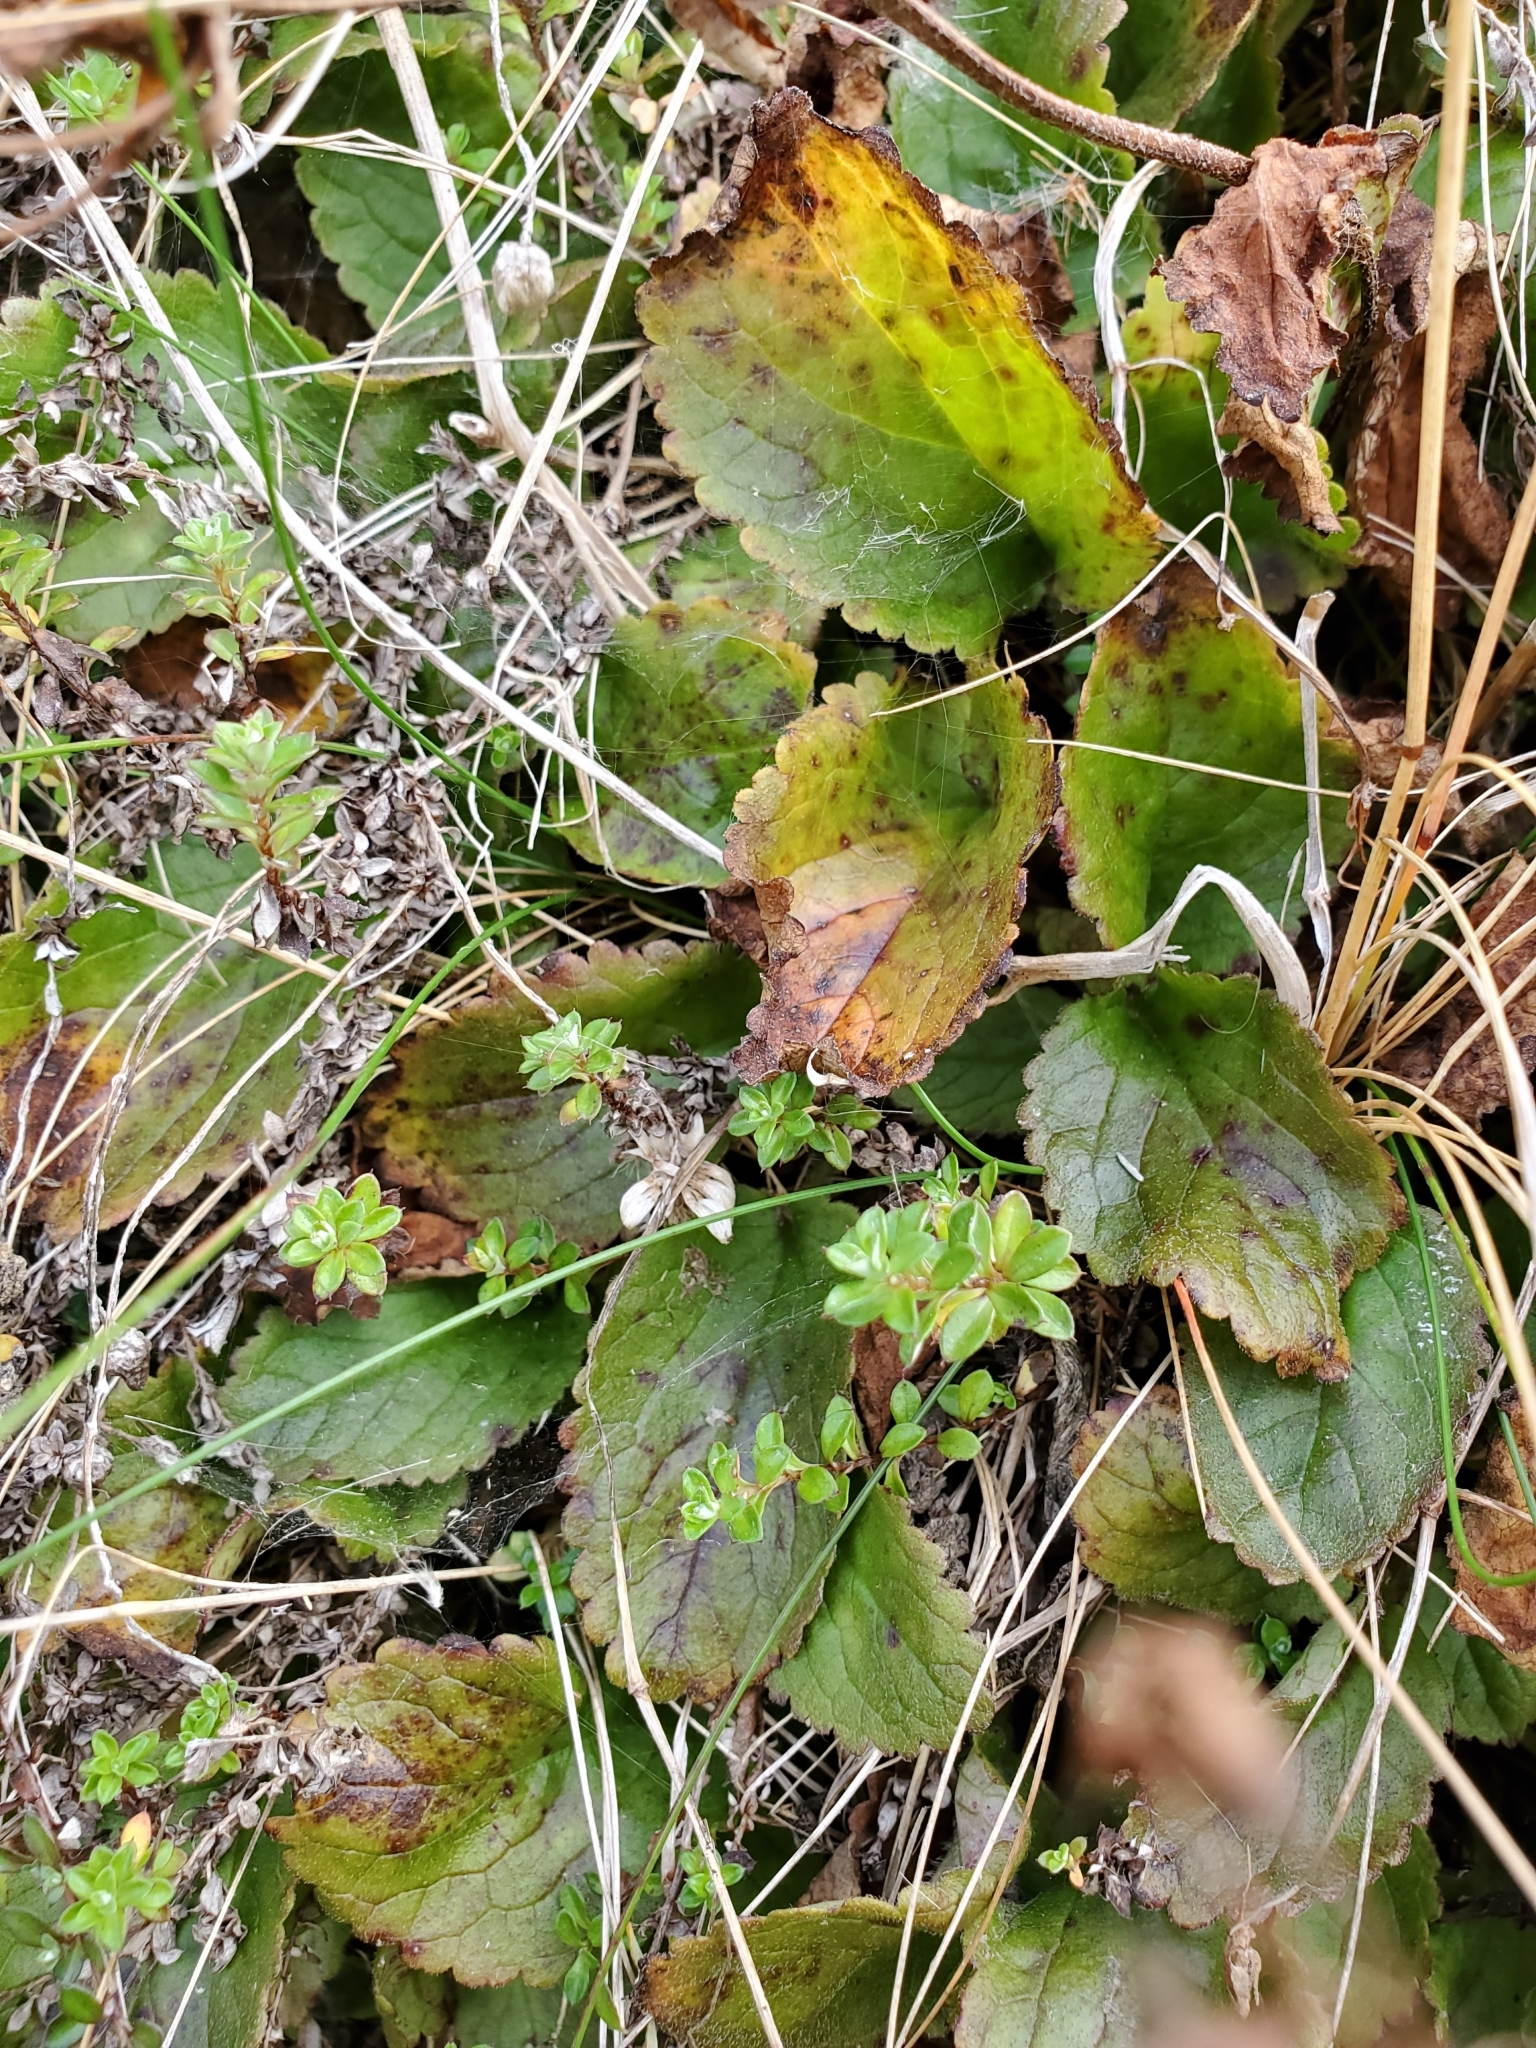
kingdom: Plantae
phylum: Tracheophyta
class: Magnoliopsida
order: Lamiales
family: Plantaginaceae
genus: Ourisia
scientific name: Ourisia macrophylla
